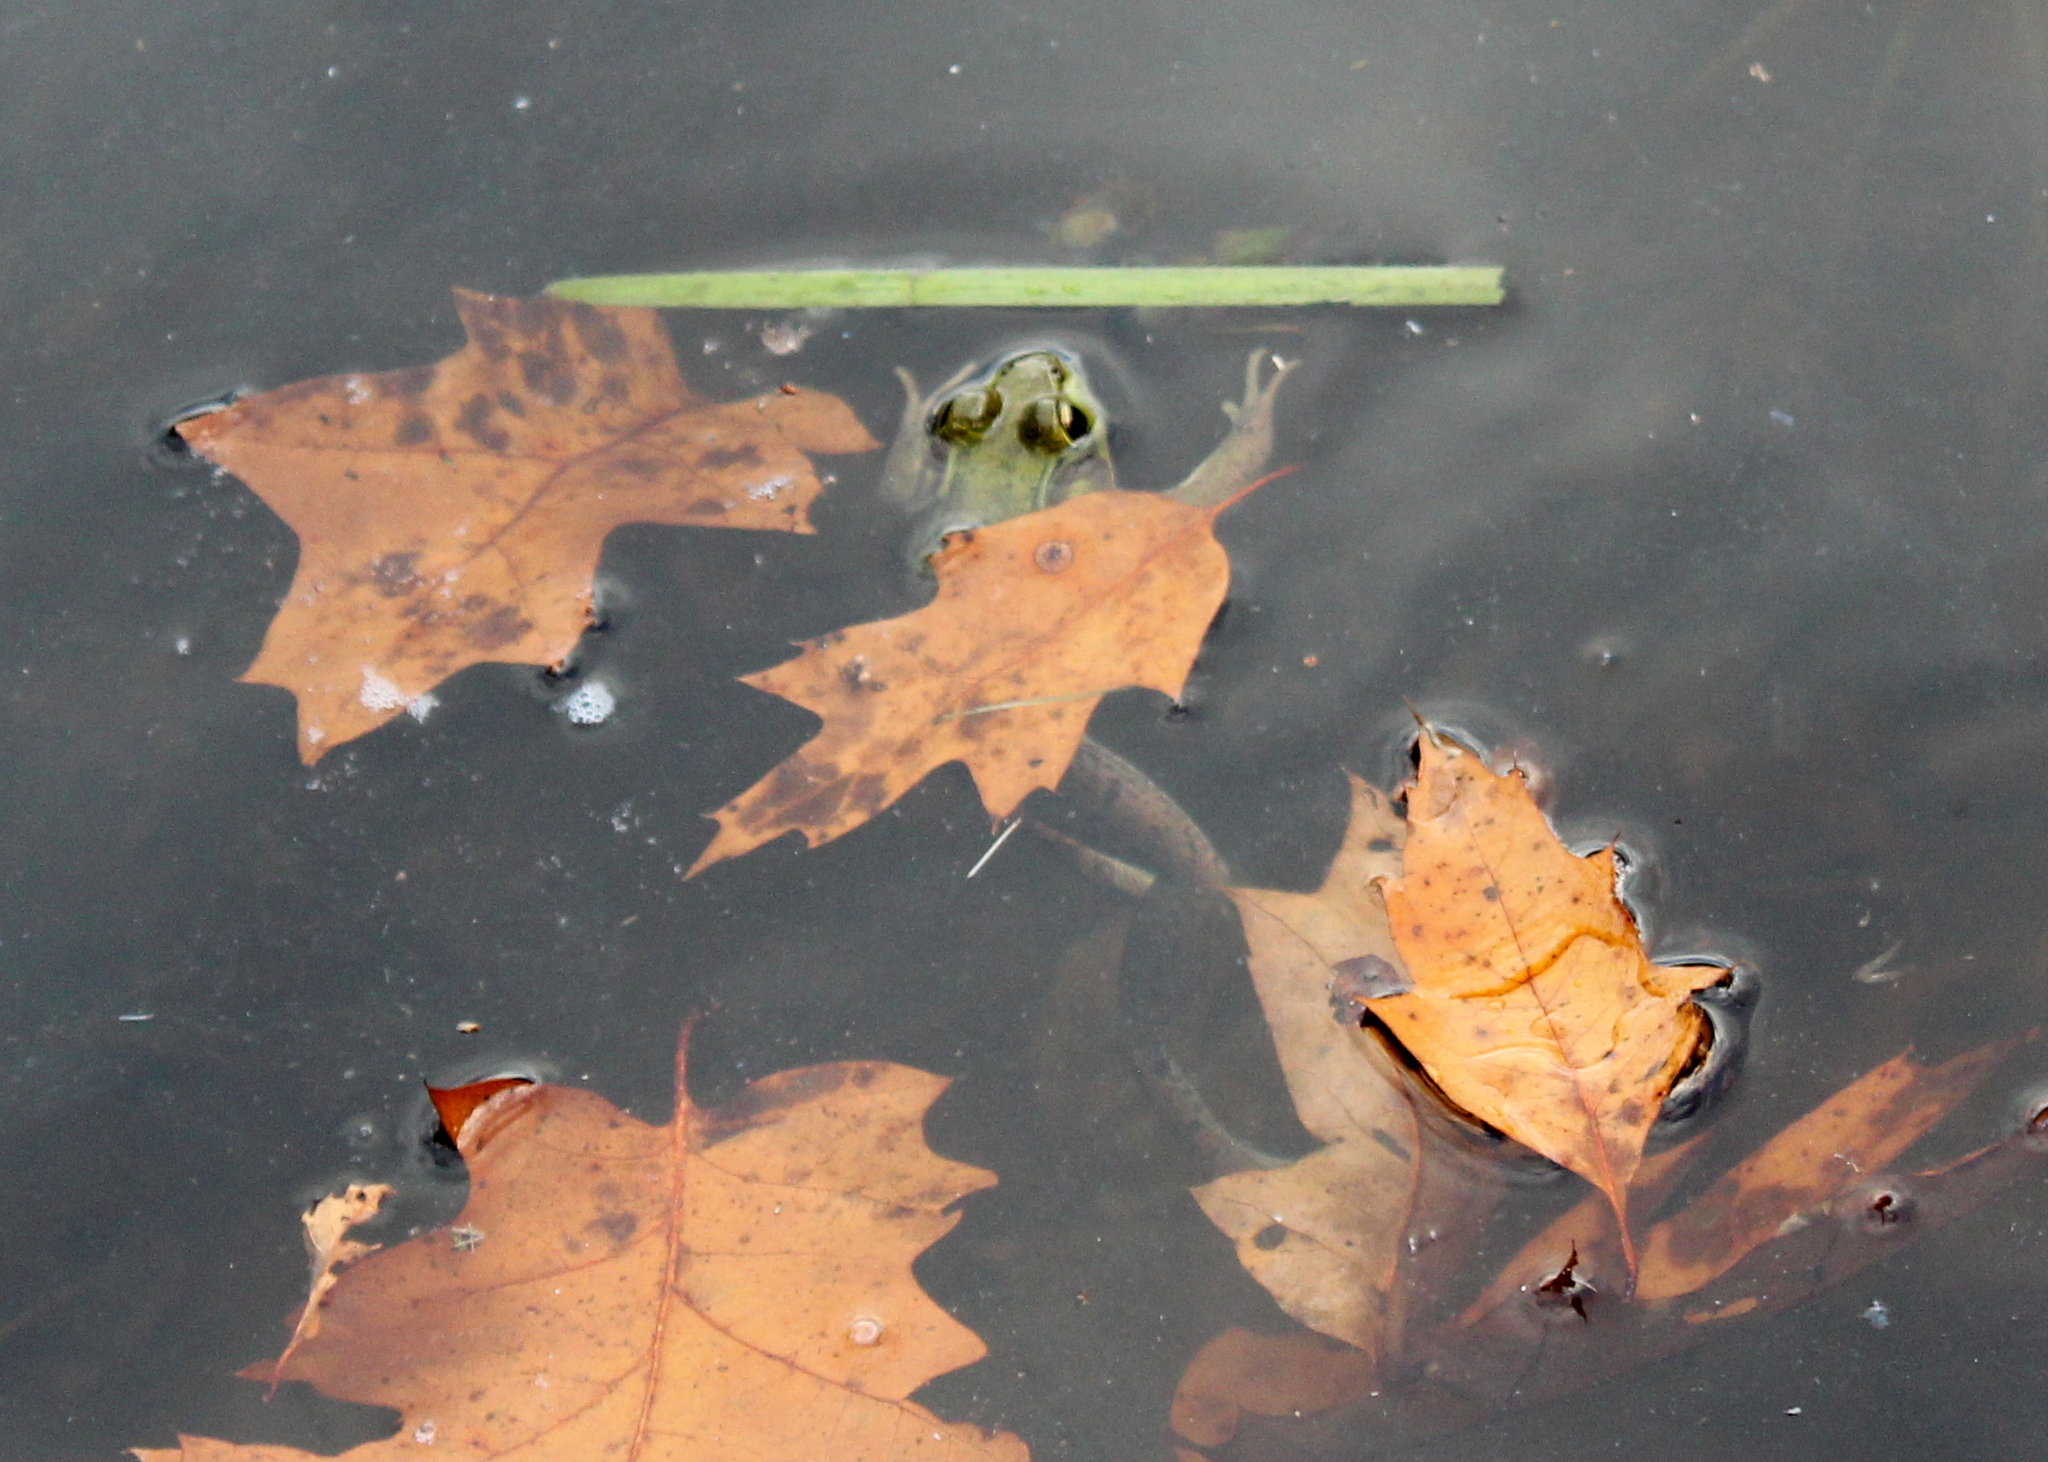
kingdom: Animalia
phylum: Chordata
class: Amphibia
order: Anura
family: Ranidae
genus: Lithobates
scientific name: Lithobates clamitans
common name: Green frog
